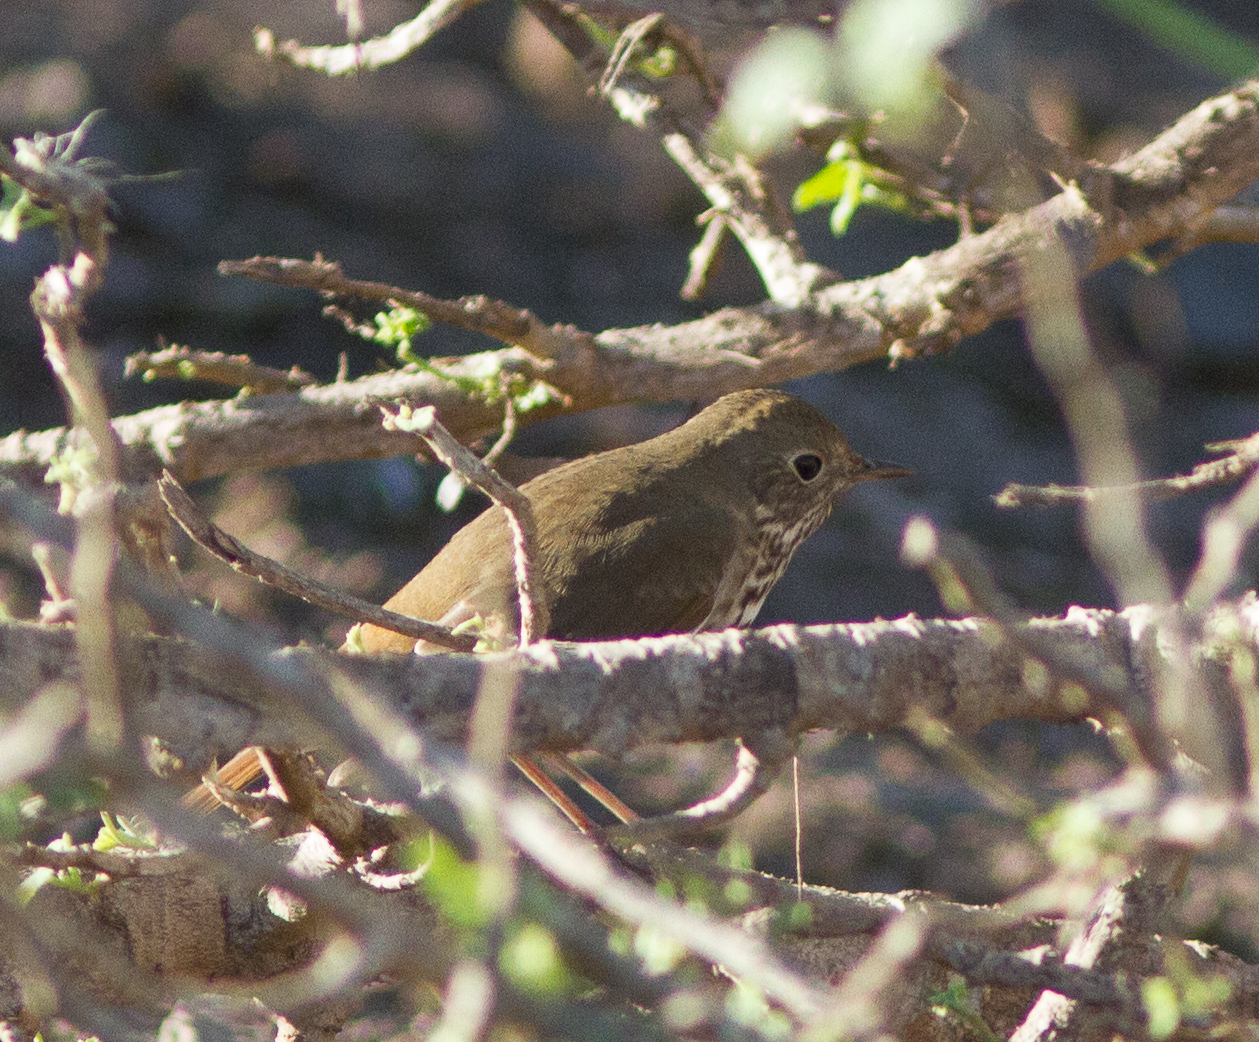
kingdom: Animalia
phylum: Chordata
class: Aves
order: Passeriformes
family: Turdidae
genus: Catharus
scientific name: Catharus guttatus
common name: Hermit thrush
